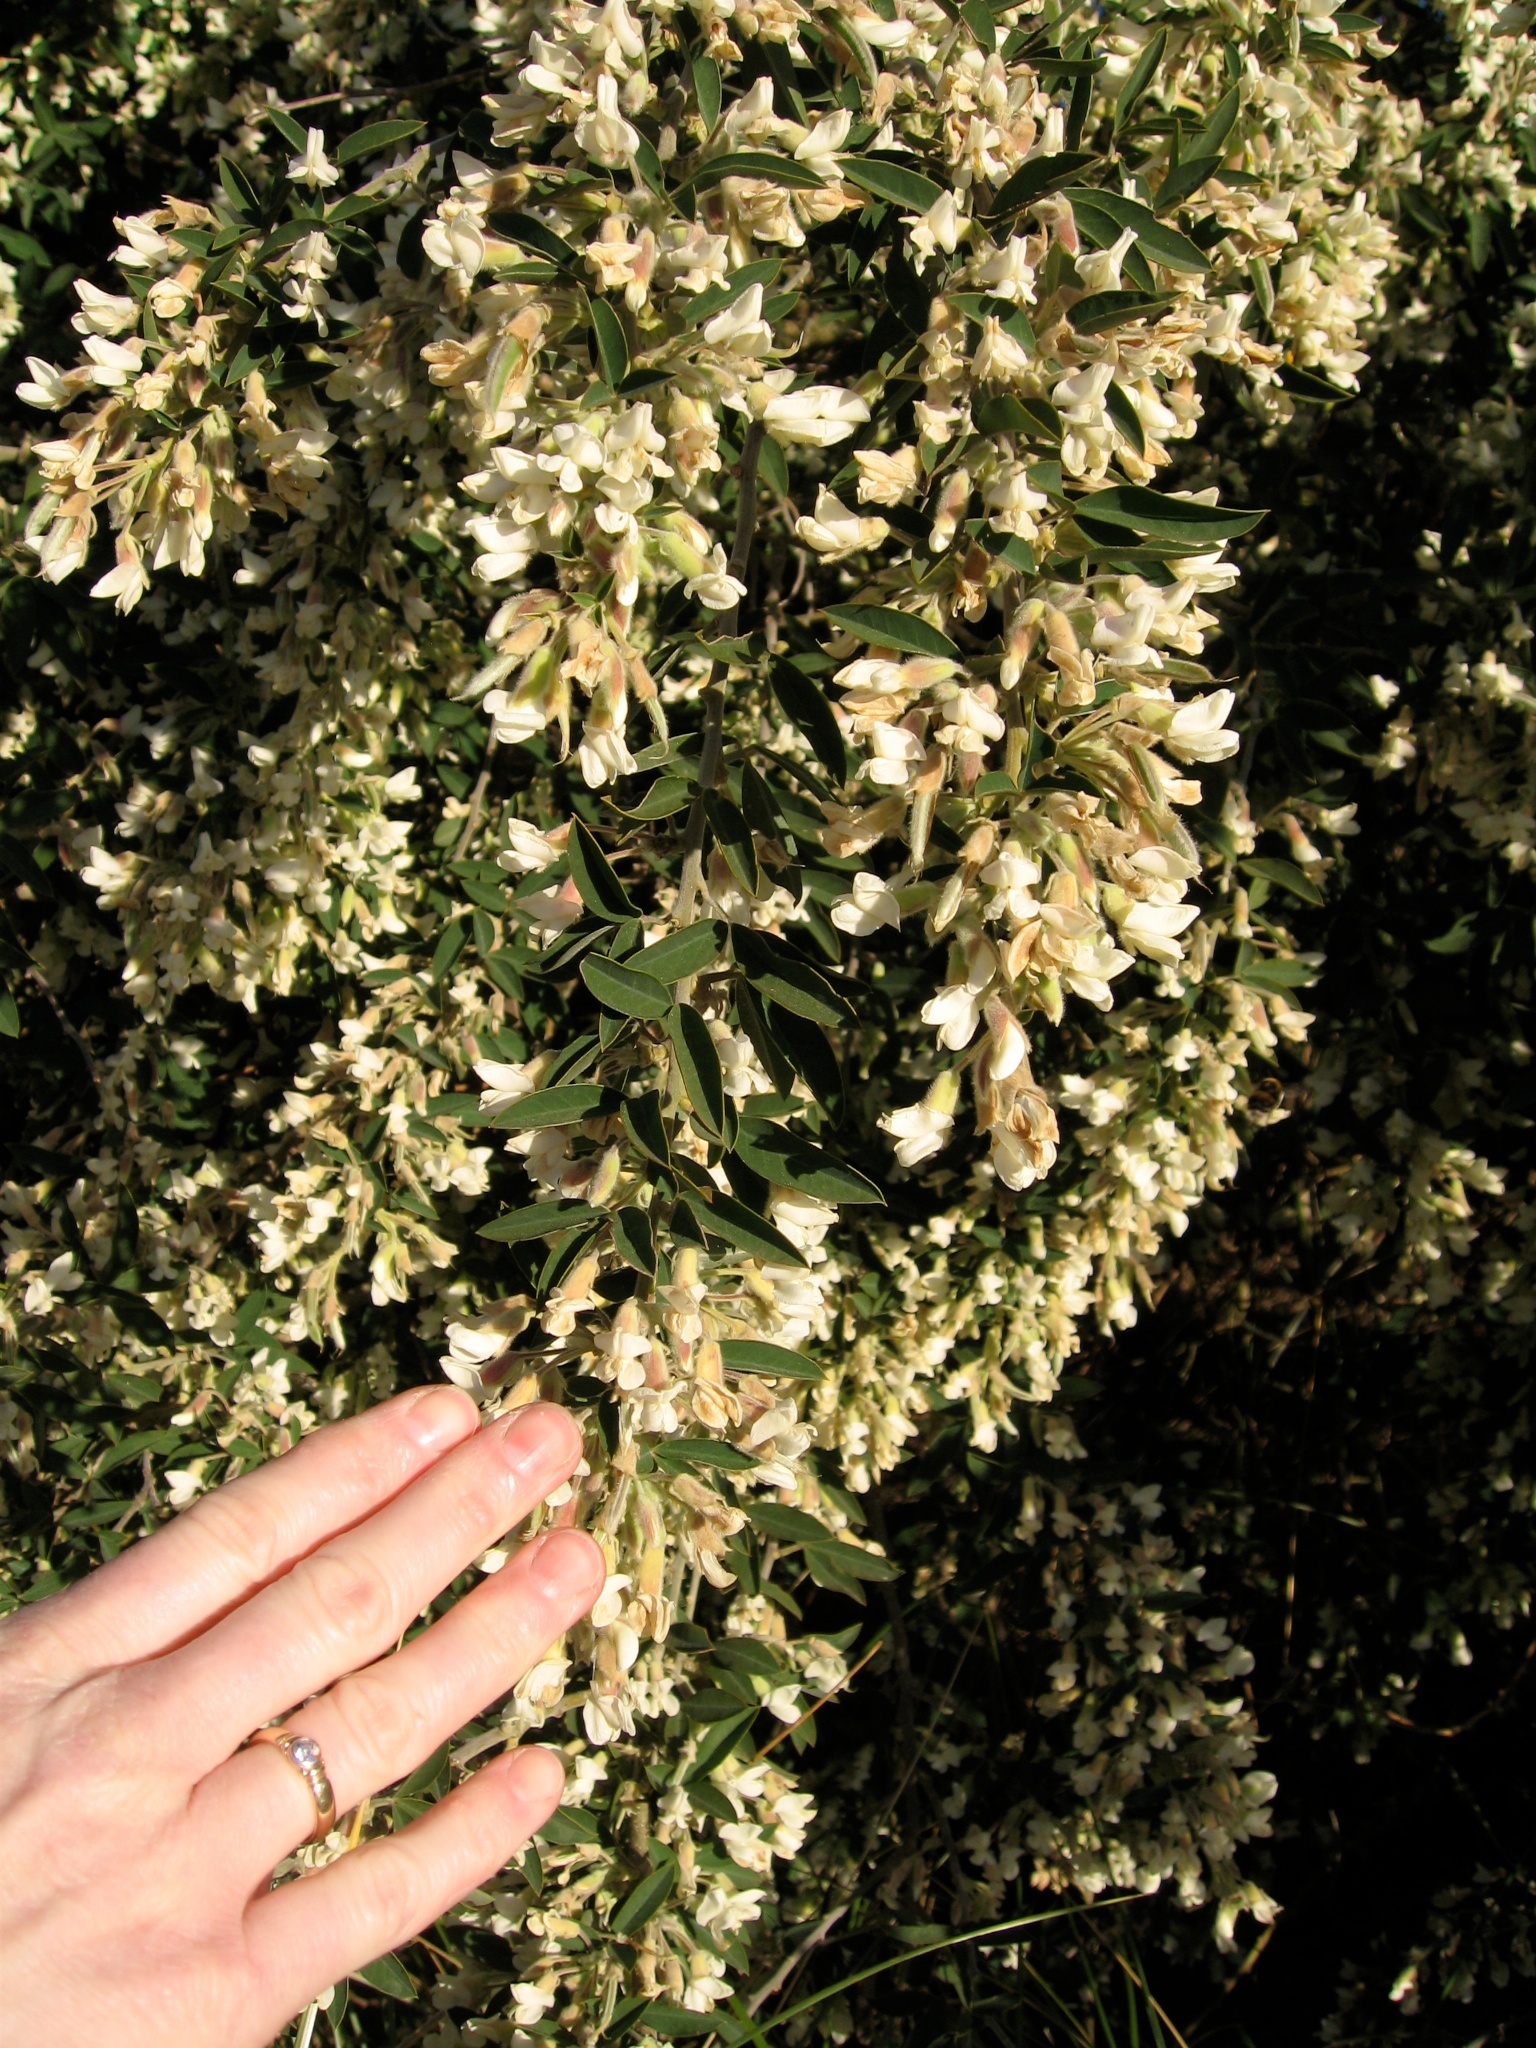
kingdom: Plantae
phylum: Tracheophyta
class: Magnoliopsida
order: Fabales
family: Fabaceae
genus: Chamaecytisus
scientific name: Chamaecytisus prolifer
